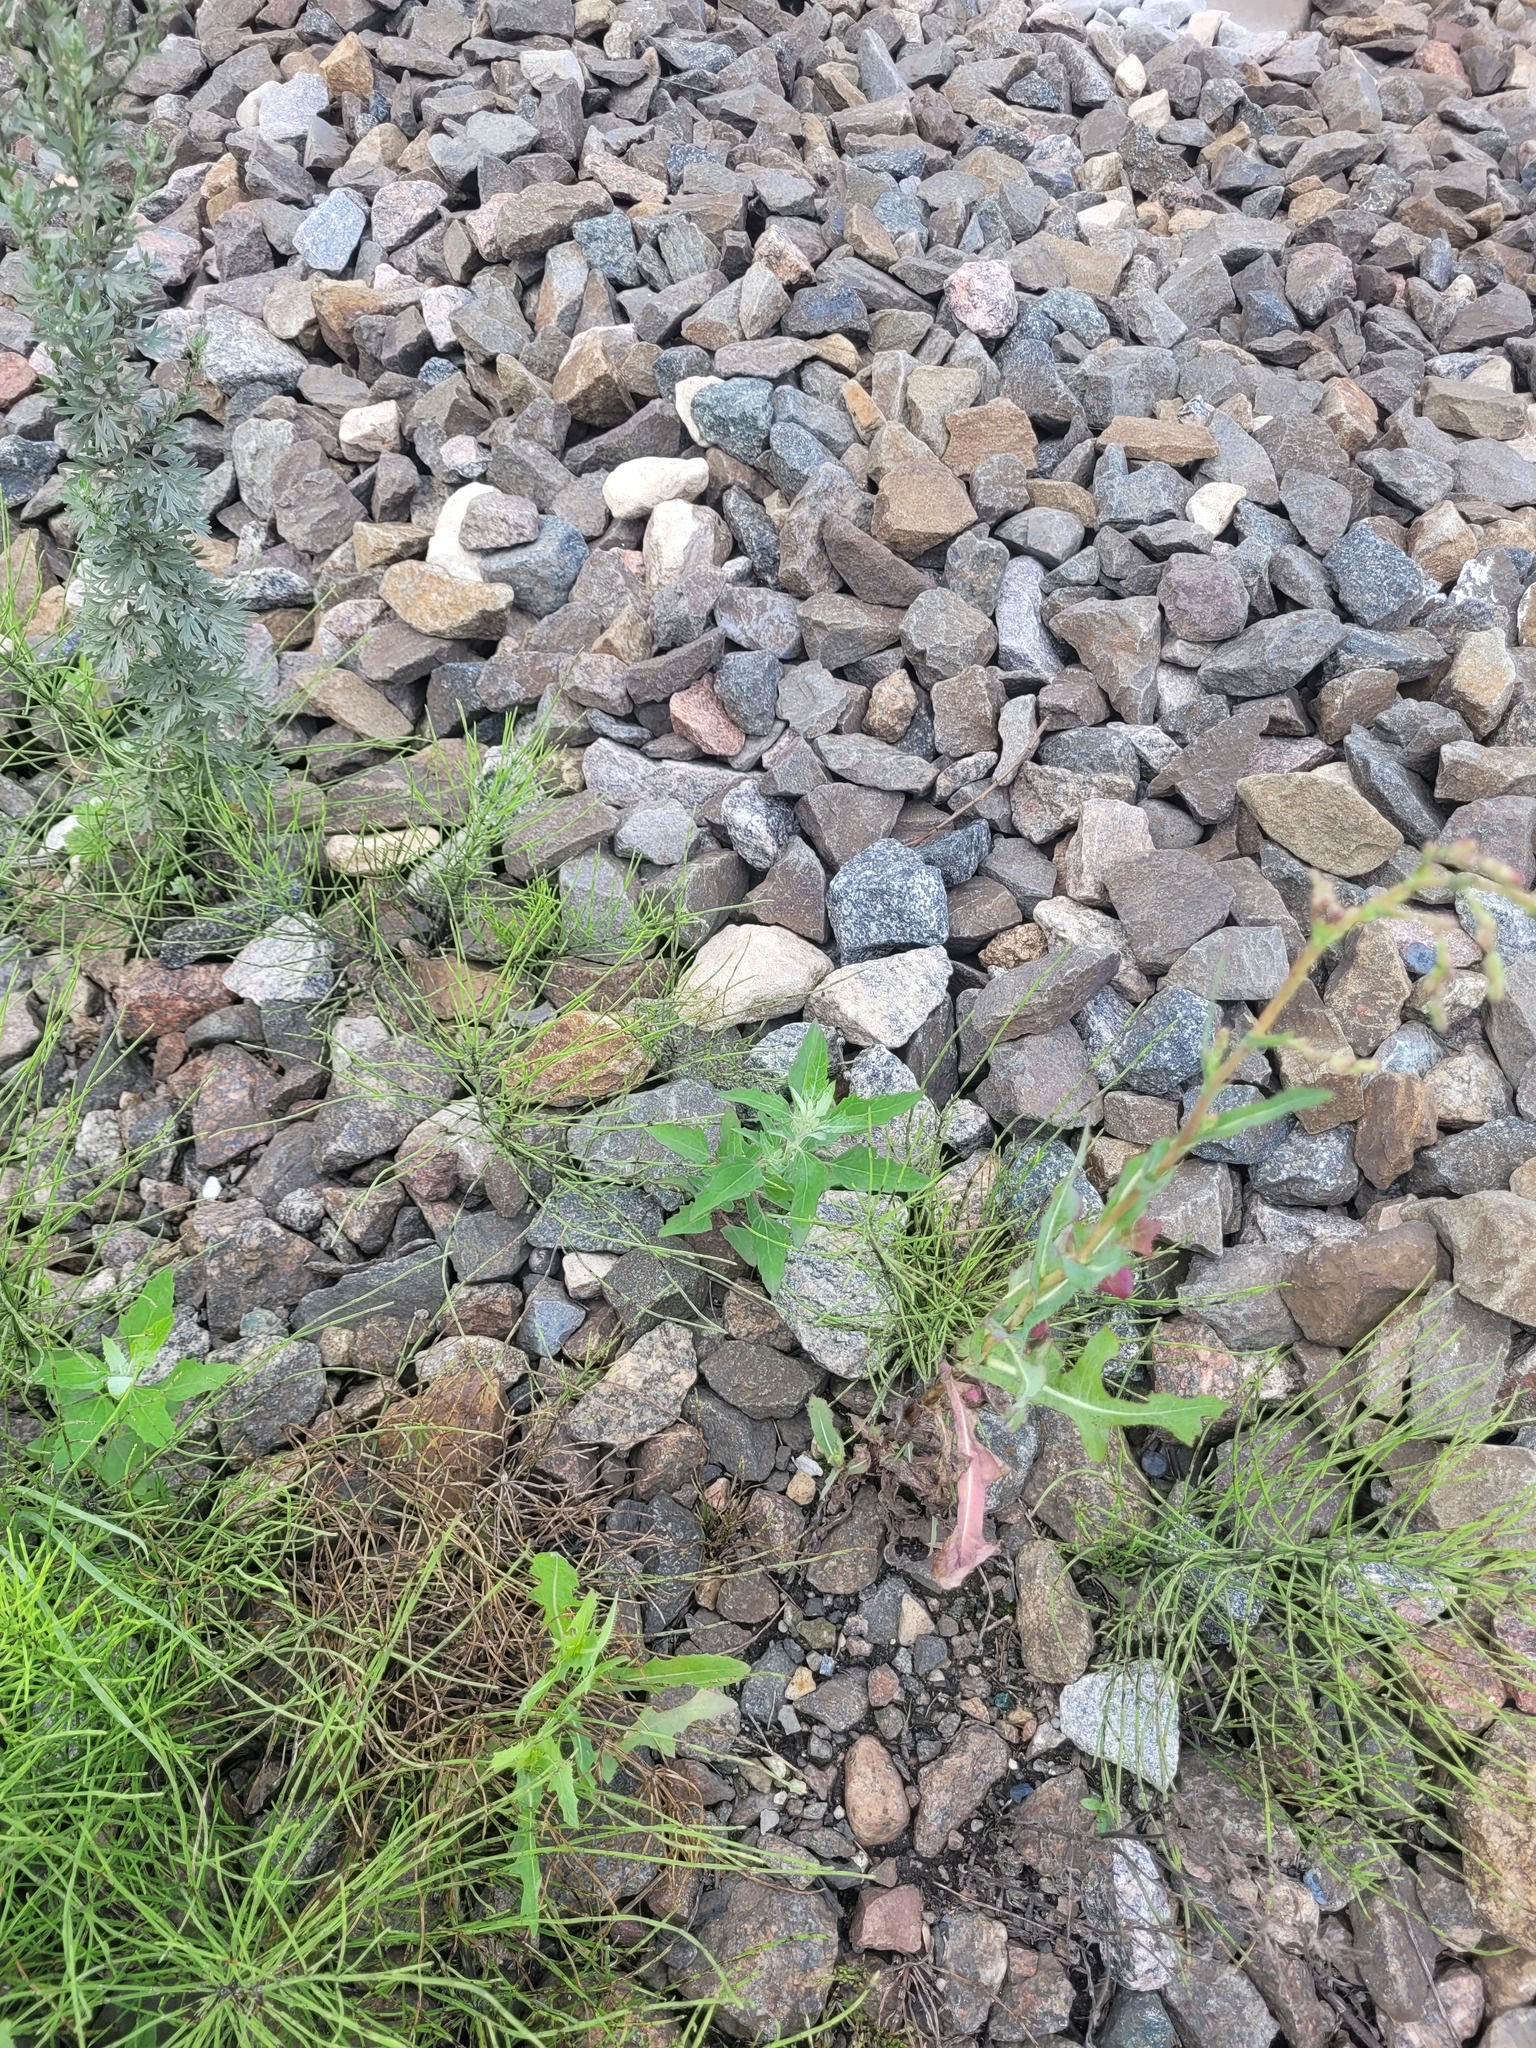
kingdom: Plantae
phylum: Tracheophyta
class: Magnoliopsida
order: Caryophyllales
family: Amaranthaceae
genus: Chenopodium
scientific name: Chenopodium album
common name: Fat-hen
